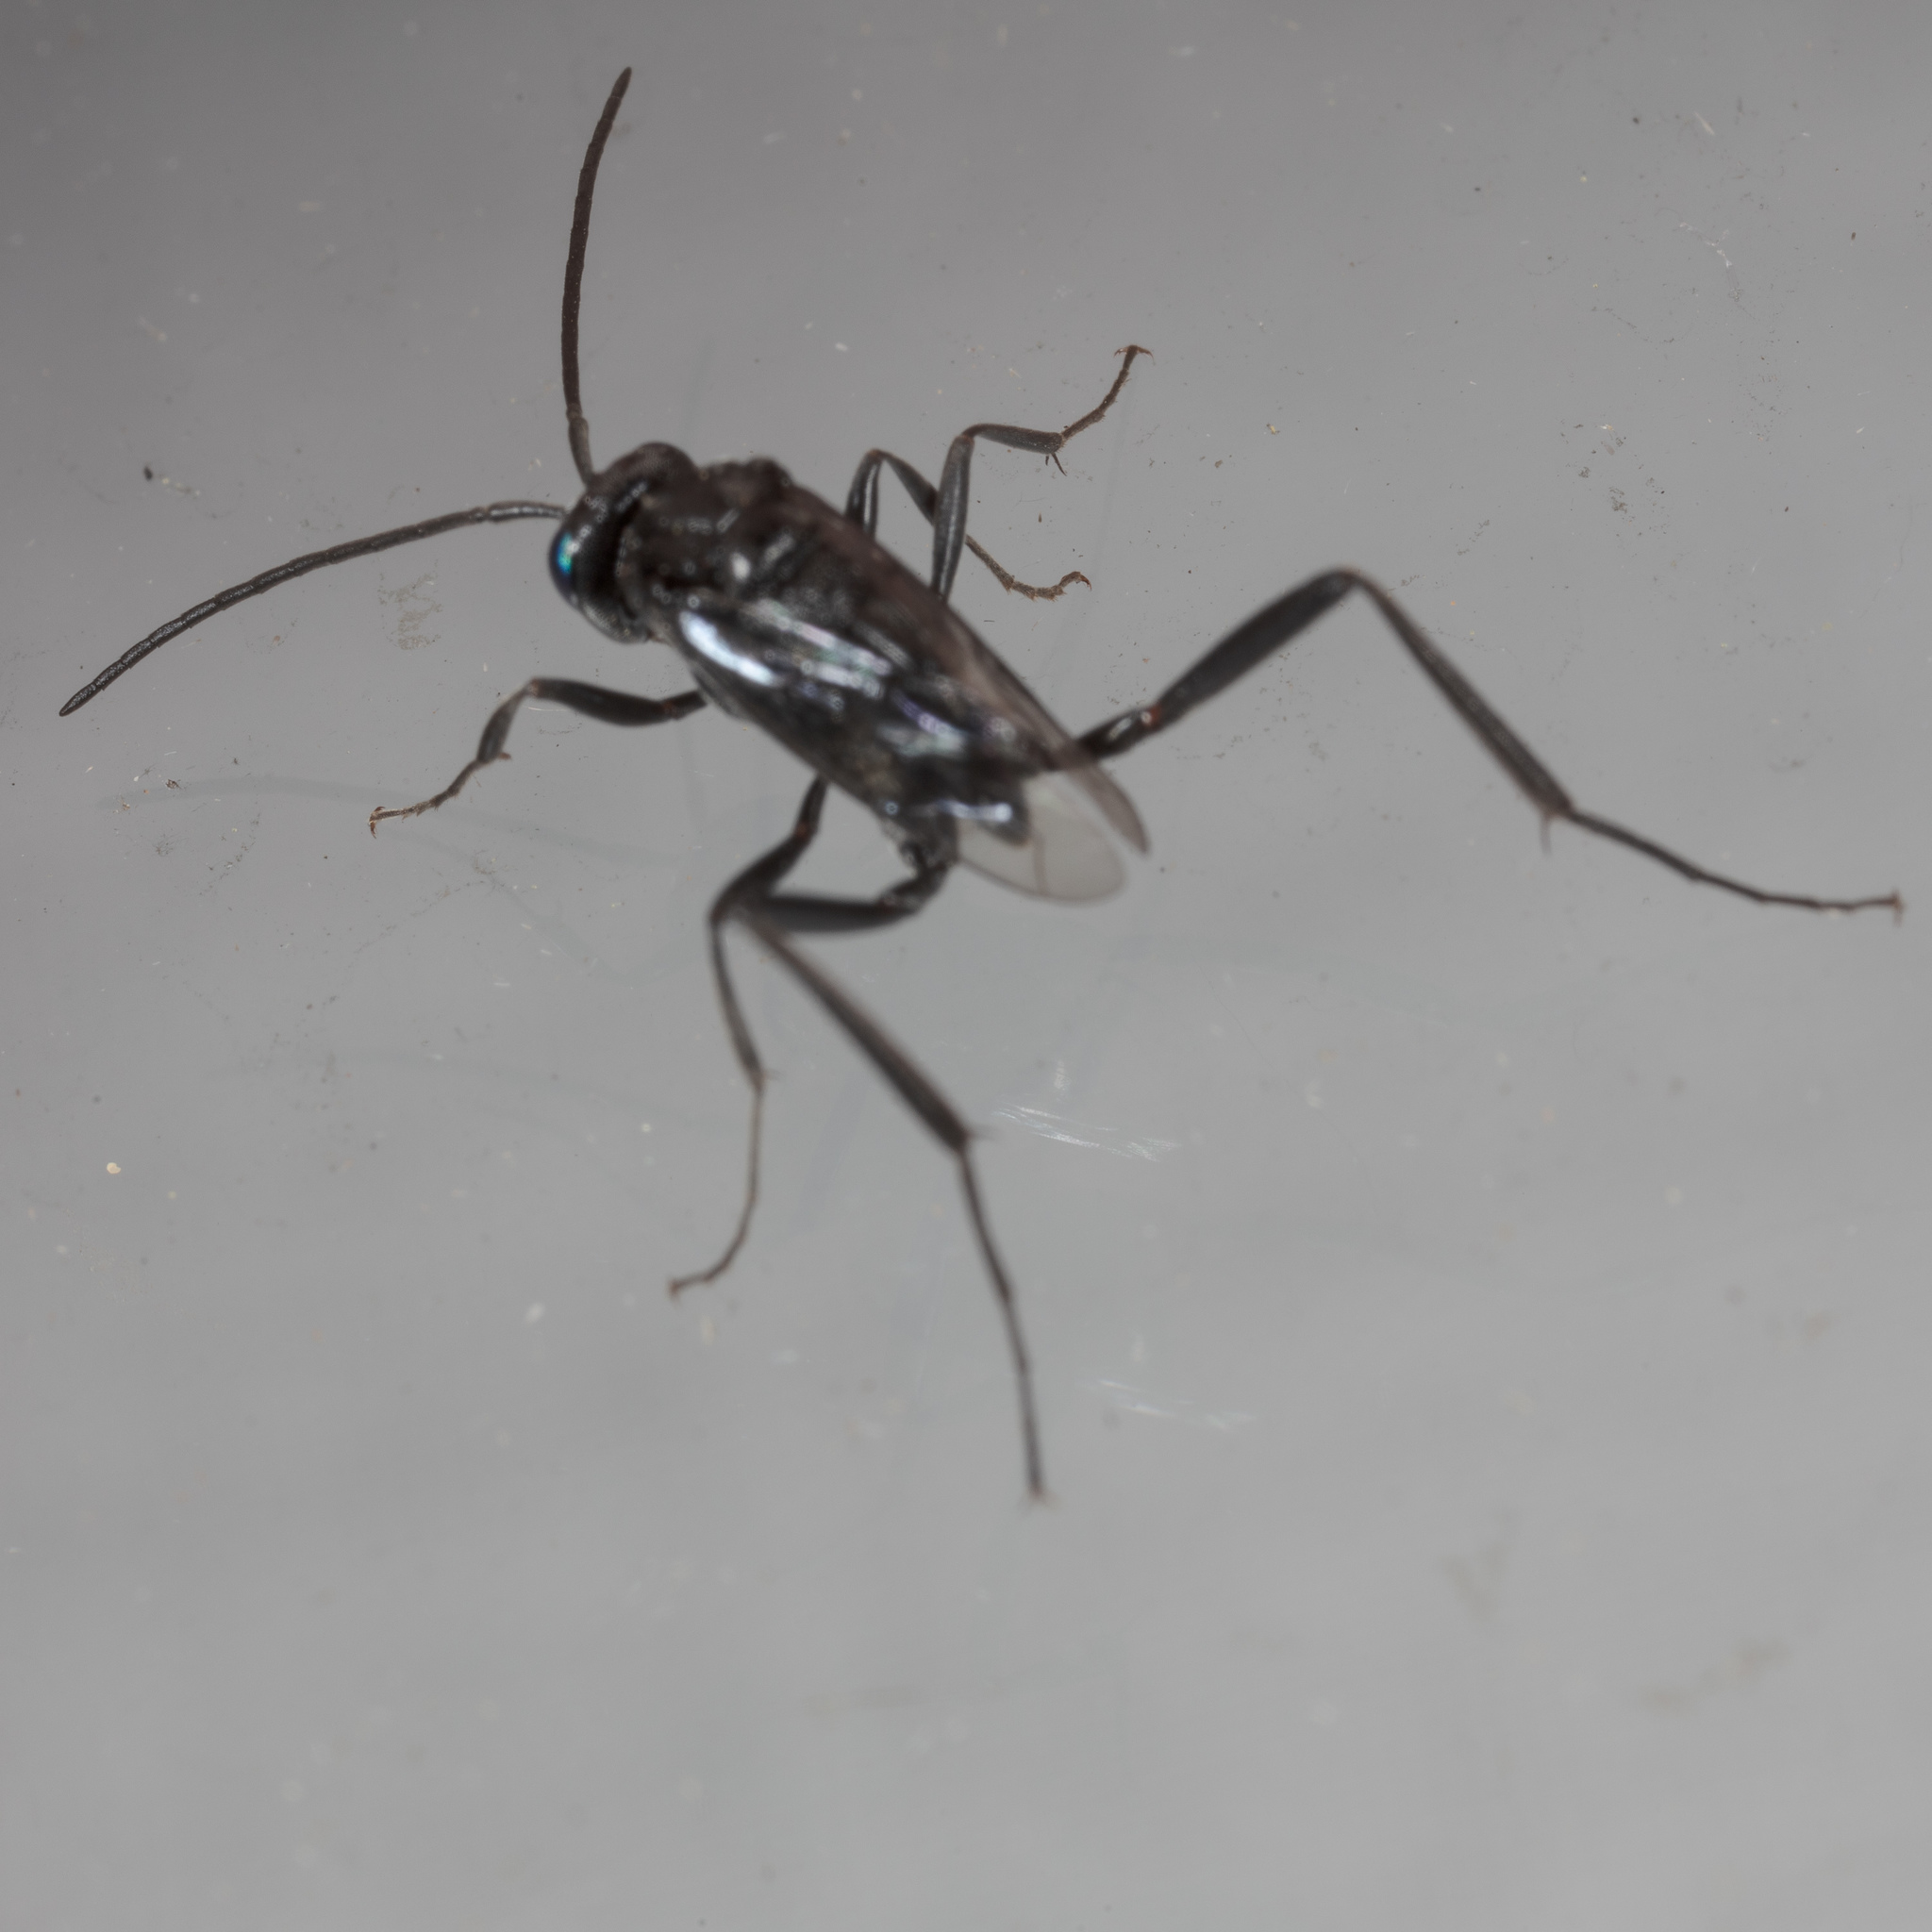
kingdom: Animalia
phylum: Arthropoda
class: Insecta
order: Hymenoptera
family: Evaniidae
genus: Evania
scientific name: Evania appendigaster
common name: Ensign wasp
